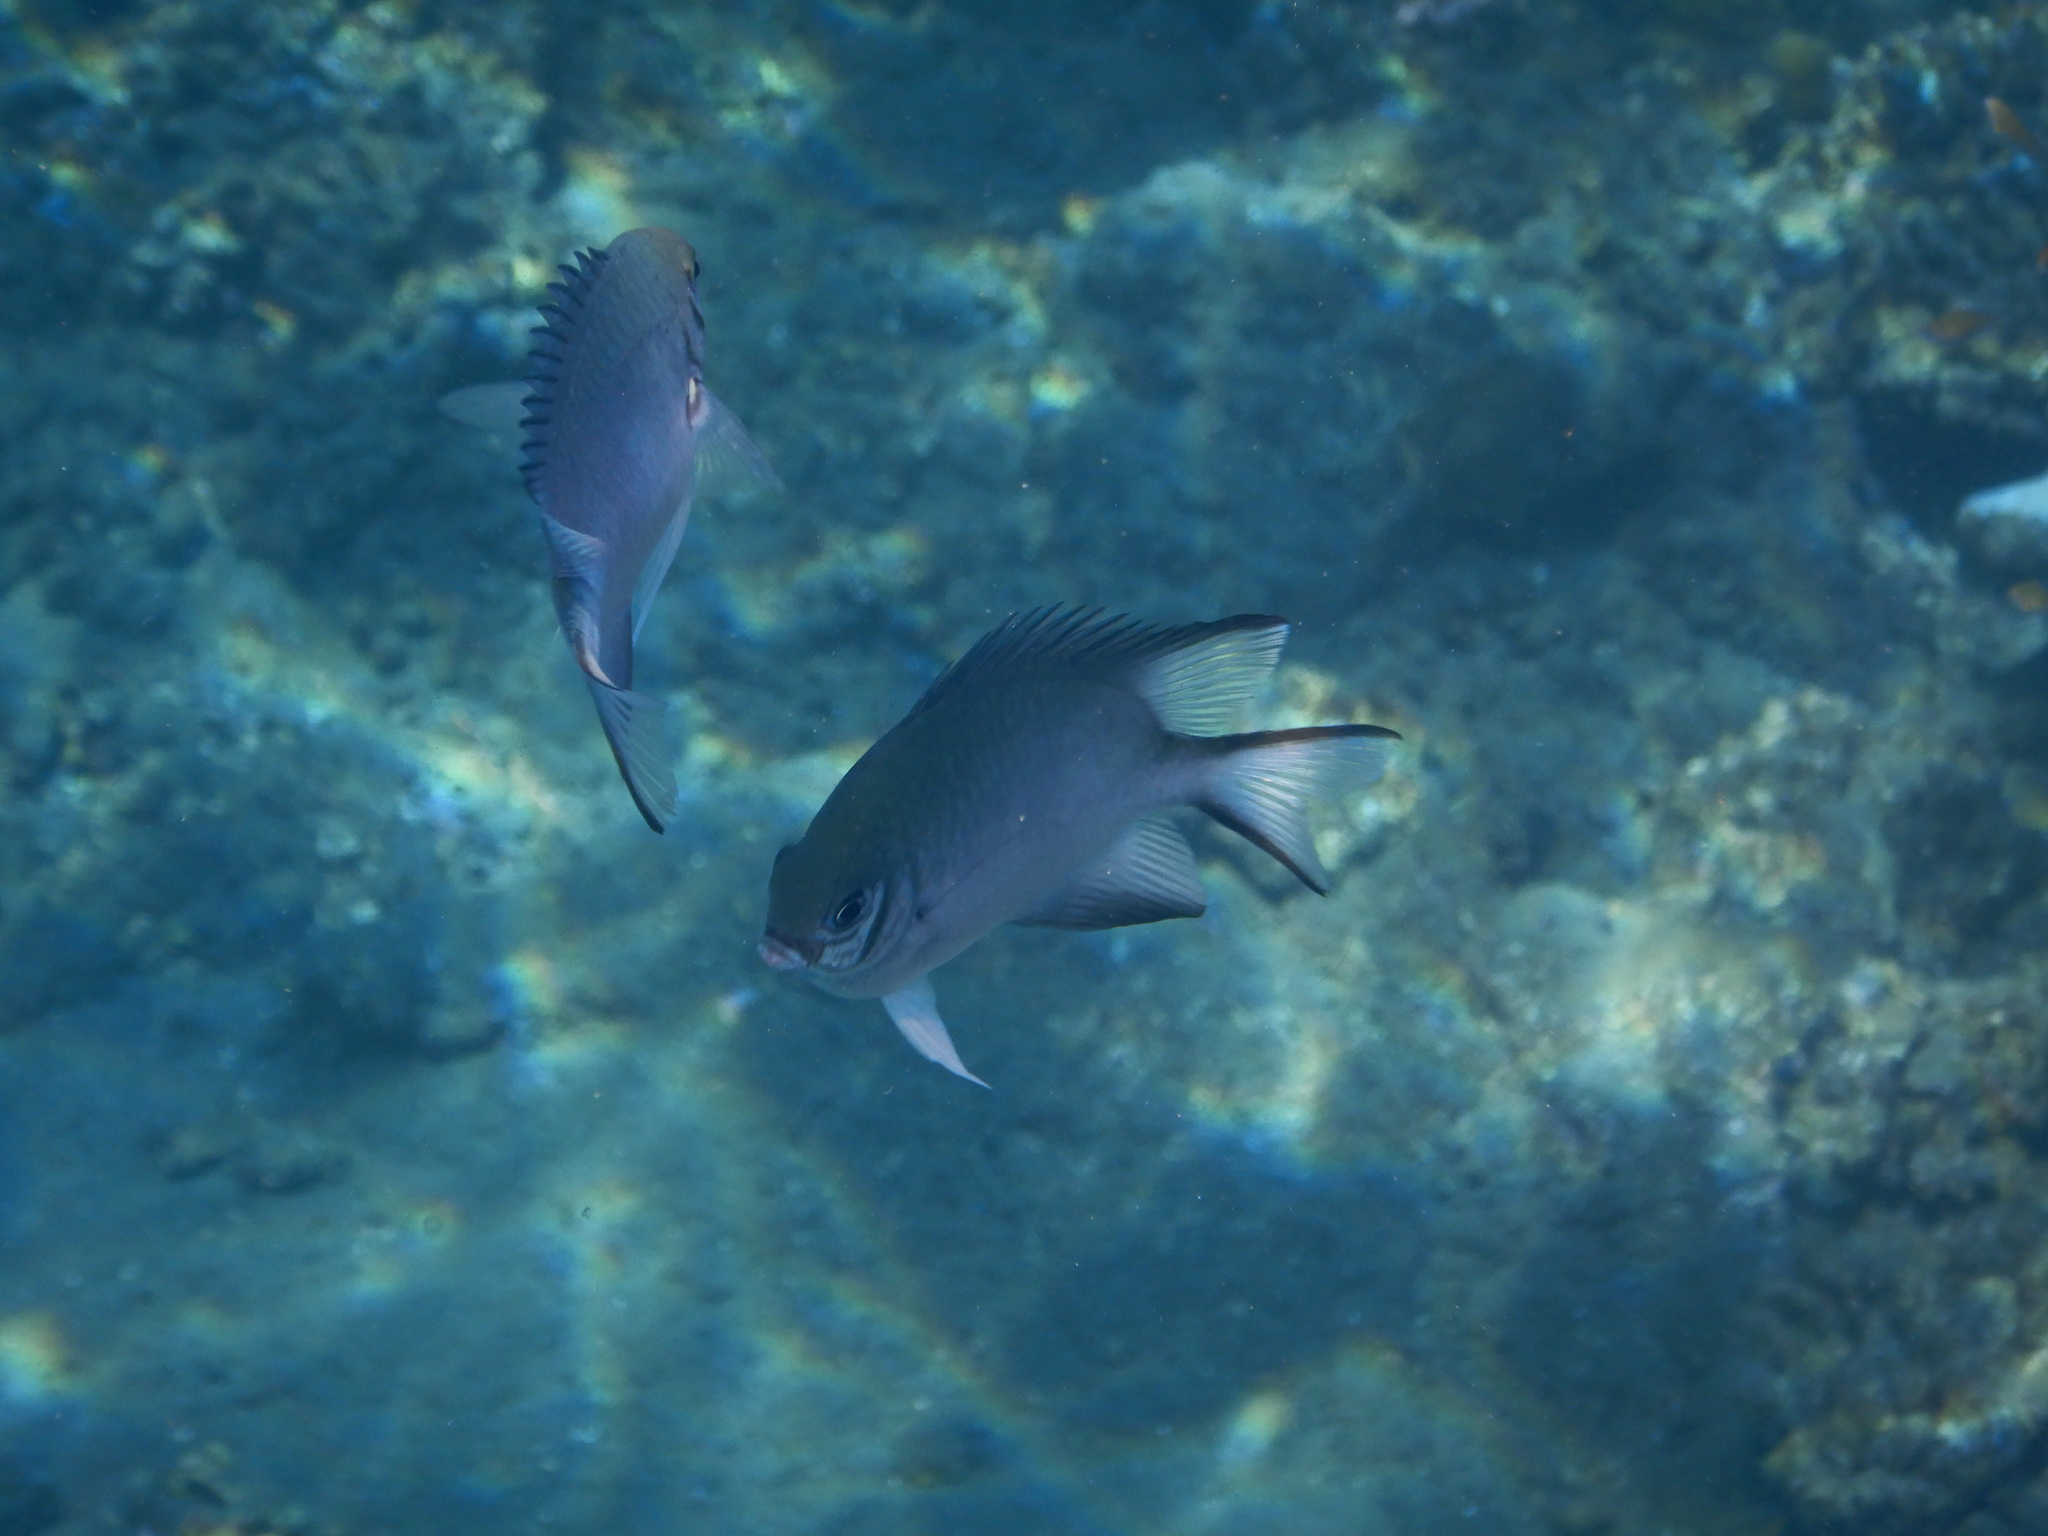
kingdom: Animalia
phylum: Chordata
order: Perciformes
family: Pomacentridae
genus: Amblyglyphidodon
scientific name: Amblyglyphidodon indicus
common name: Maldives damselfish
